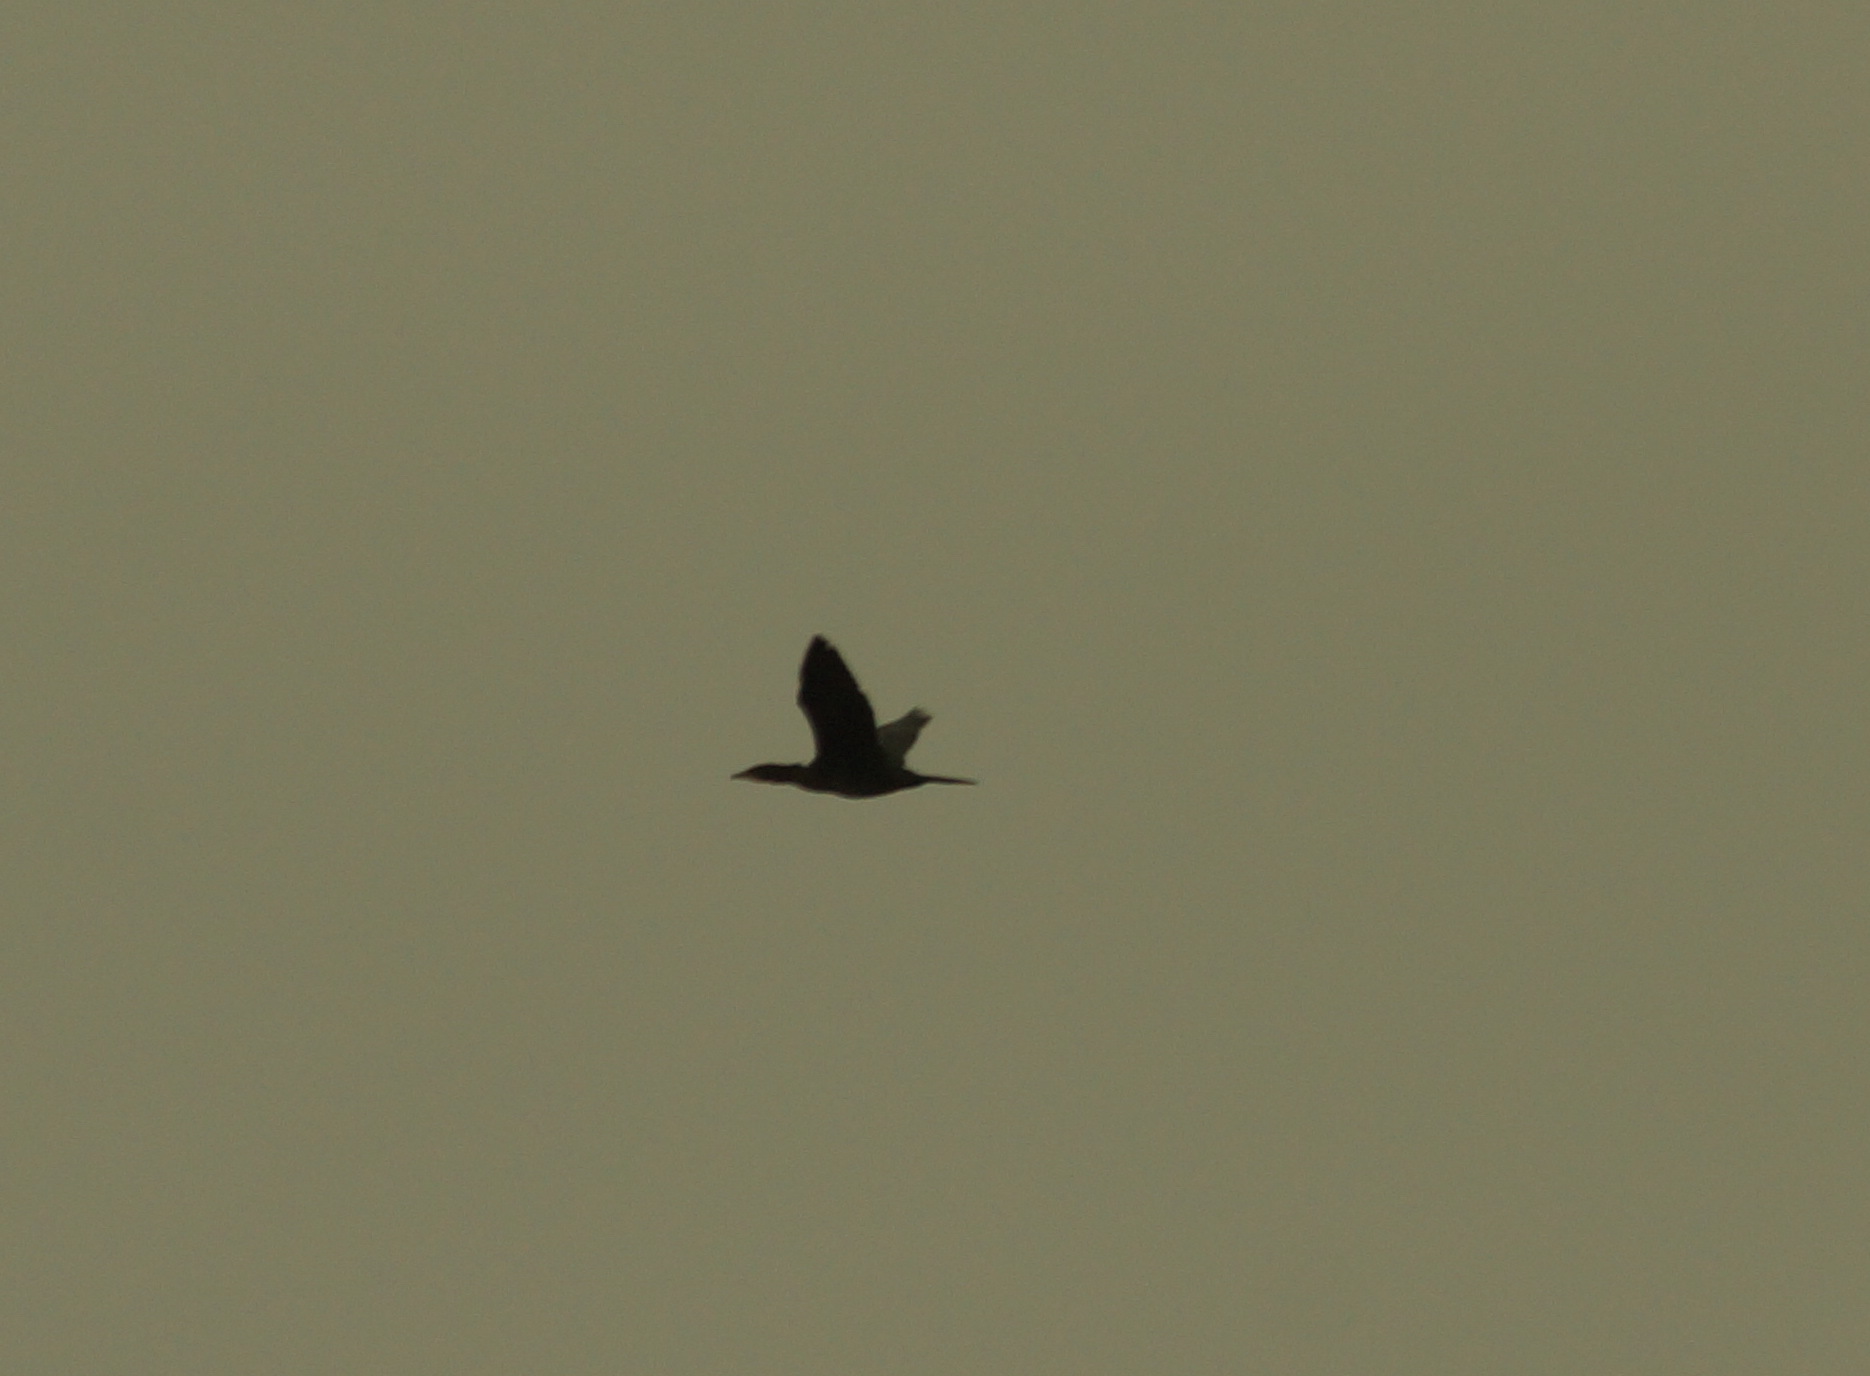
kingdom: Animalia
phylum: Chordata
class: Aves
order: Suliformes
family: Phalacrocoracidae
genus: Microcarbo
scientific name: Microcarbo pygmaeus
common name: Pygmy cormorant
